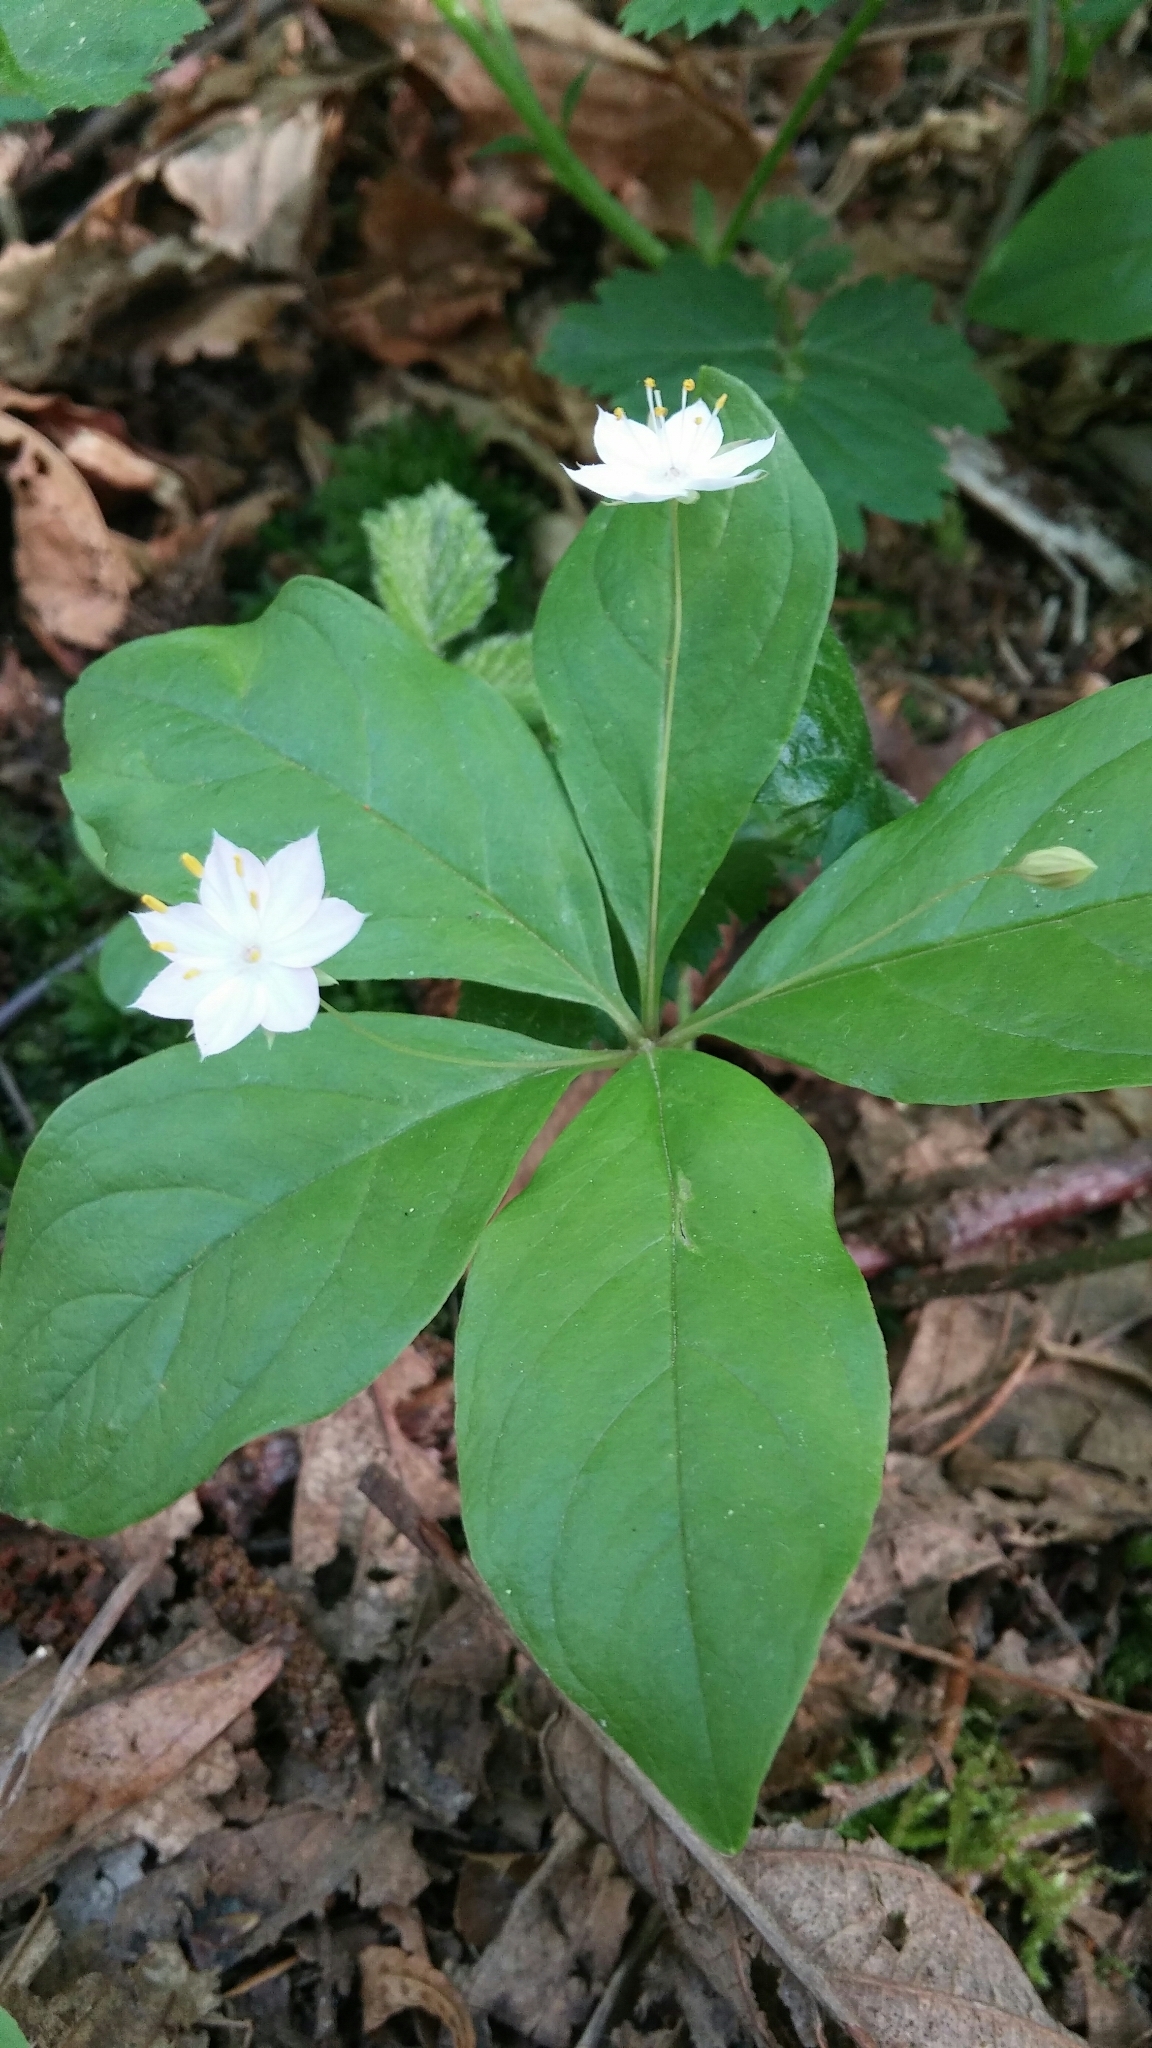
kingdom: Plantae
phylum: Tracheophyta
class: Magnoliopsida
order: Ericales
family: Primulaceae
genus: Lysimachia
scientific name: Lysimachia latifolia
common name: Pacific starflower
